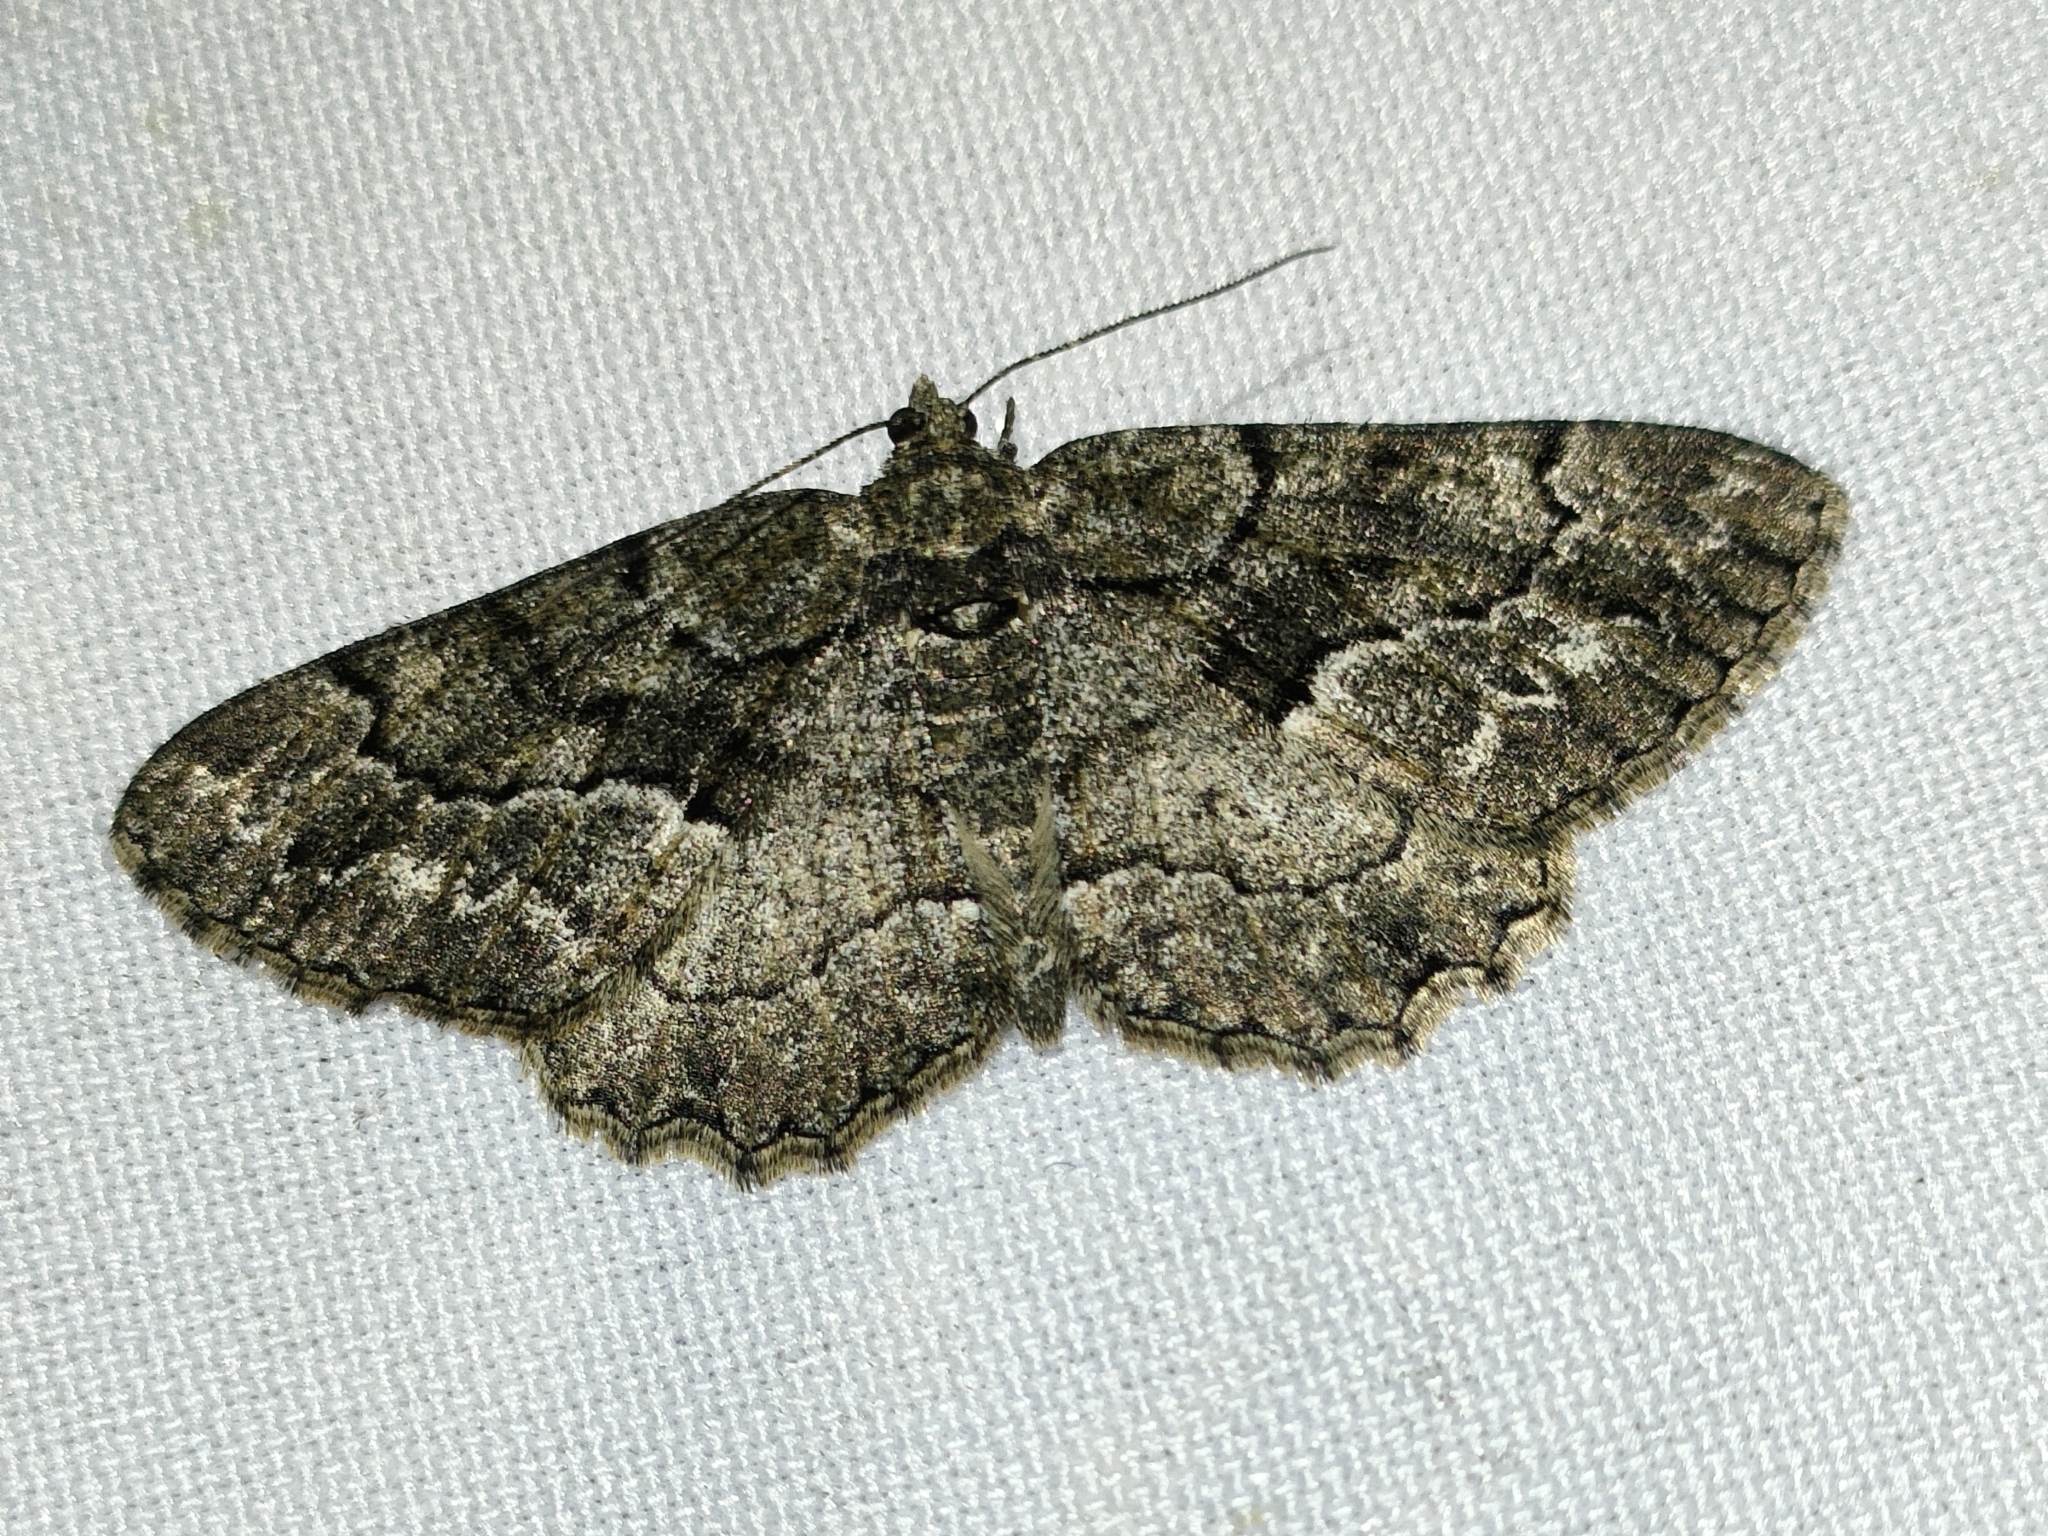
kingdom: Animalia
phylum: Arthropoda
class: Insecta
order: Lepidoptera
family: Geometridae
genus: Peribatodes
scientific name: Peribatodes ilicaria
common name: Lydd beauty
